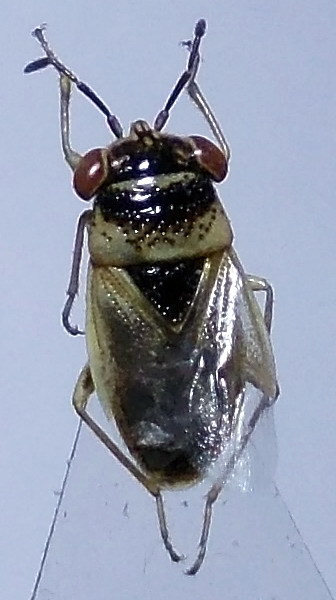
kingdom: Animalia
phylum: Arthropoda
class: Insecta
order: Hemiptera
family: Geocoridae
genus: Geocoris
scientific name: Geocoris arenarius
